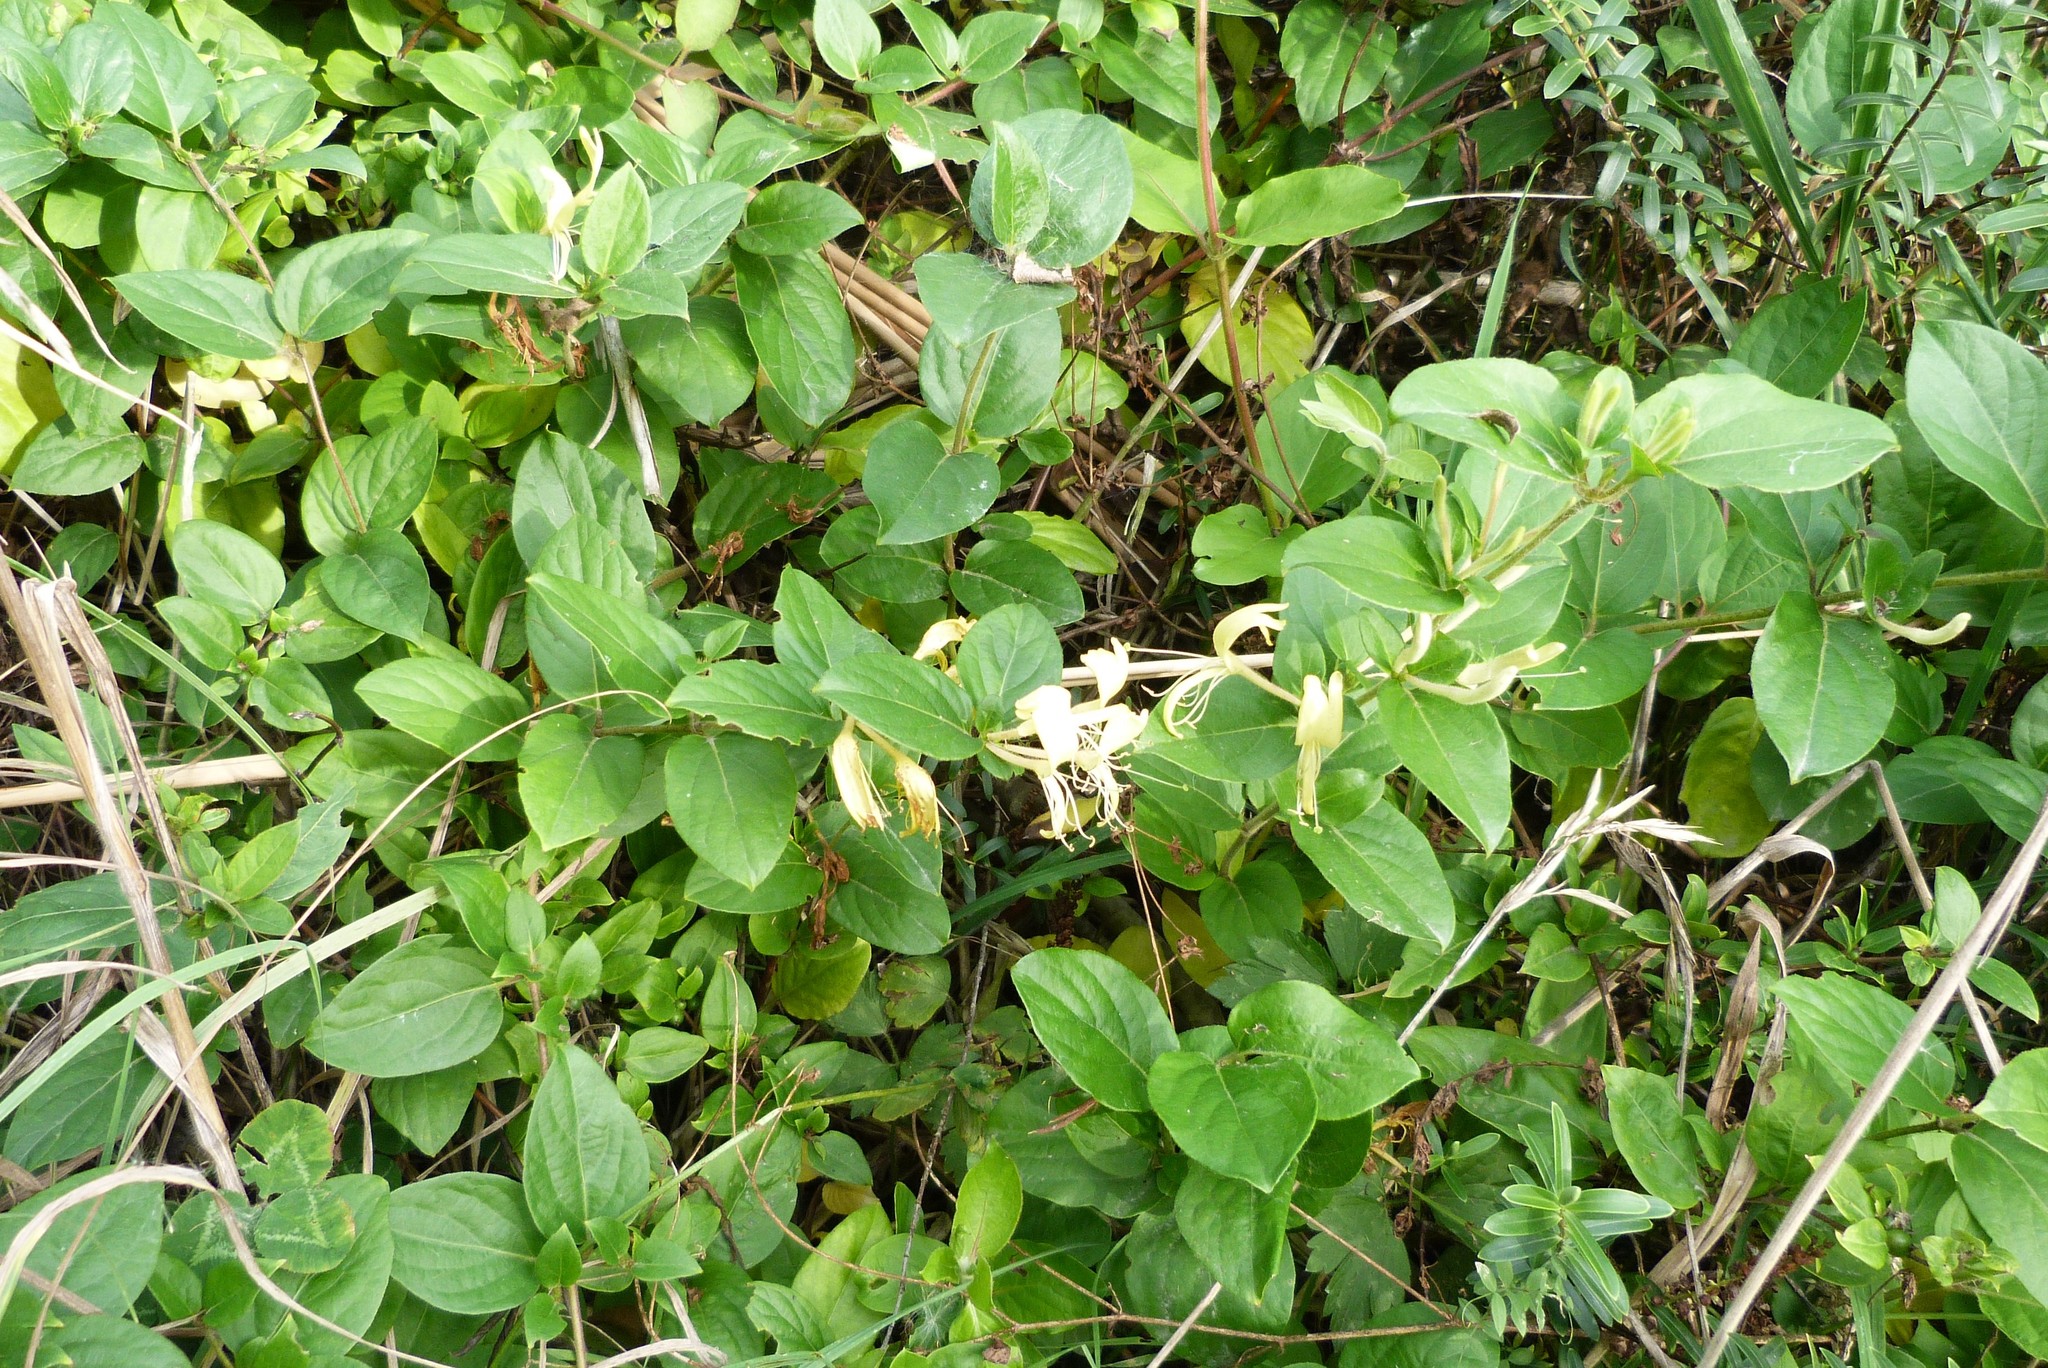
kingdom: Plantae
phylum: Tracheophyta
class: Magnoliopsida
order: Dipsacales
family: Caprifoliaceae
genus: Lonicera
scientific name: Lonicera japonica
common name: Japanese honeysuckle
